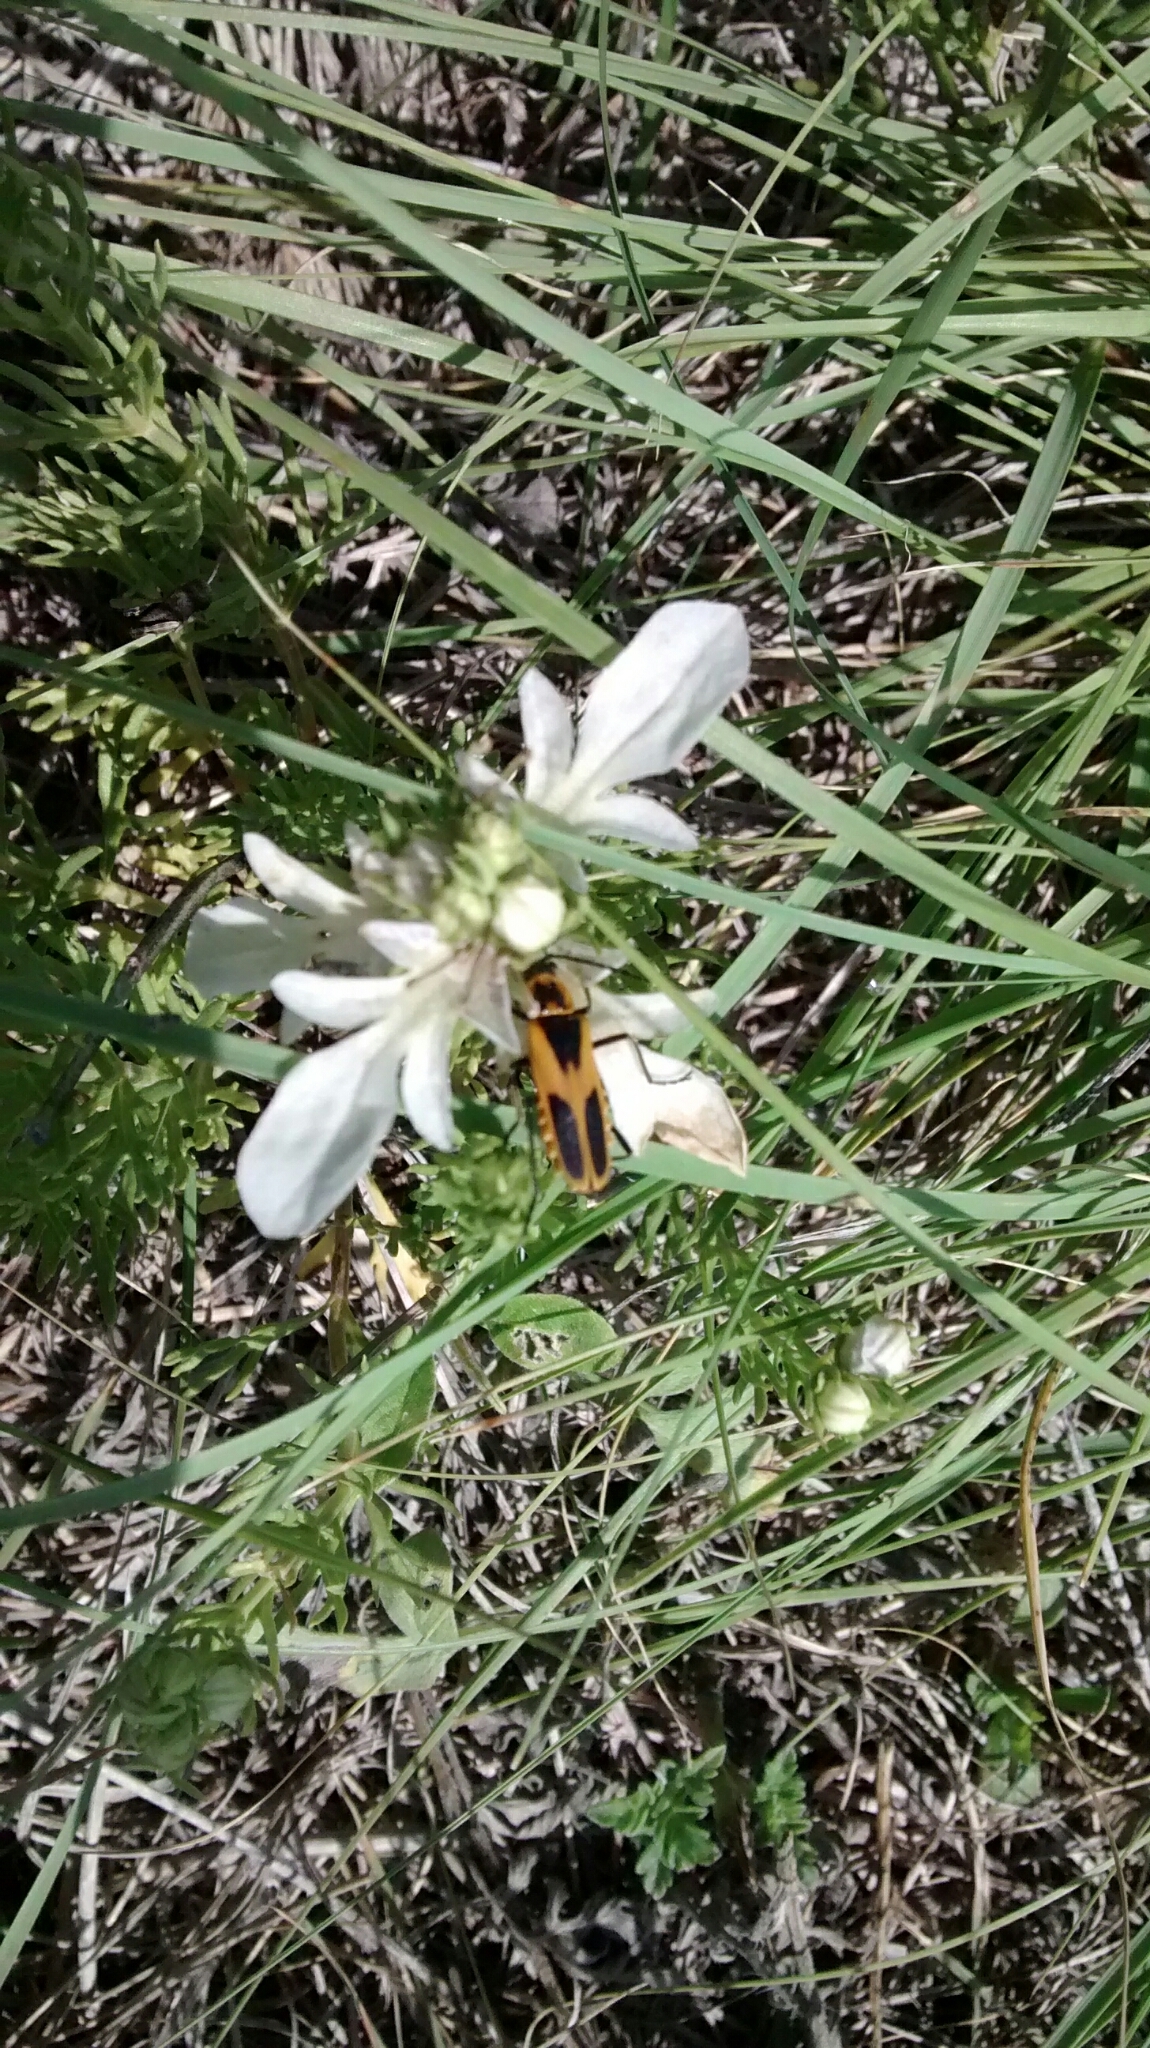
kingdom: Animalia
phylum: Arthropoda
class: Insecta
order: Coleoptera
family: Cantharidae
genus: Chauliognathus
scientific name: Chauliognathus scutellaris
